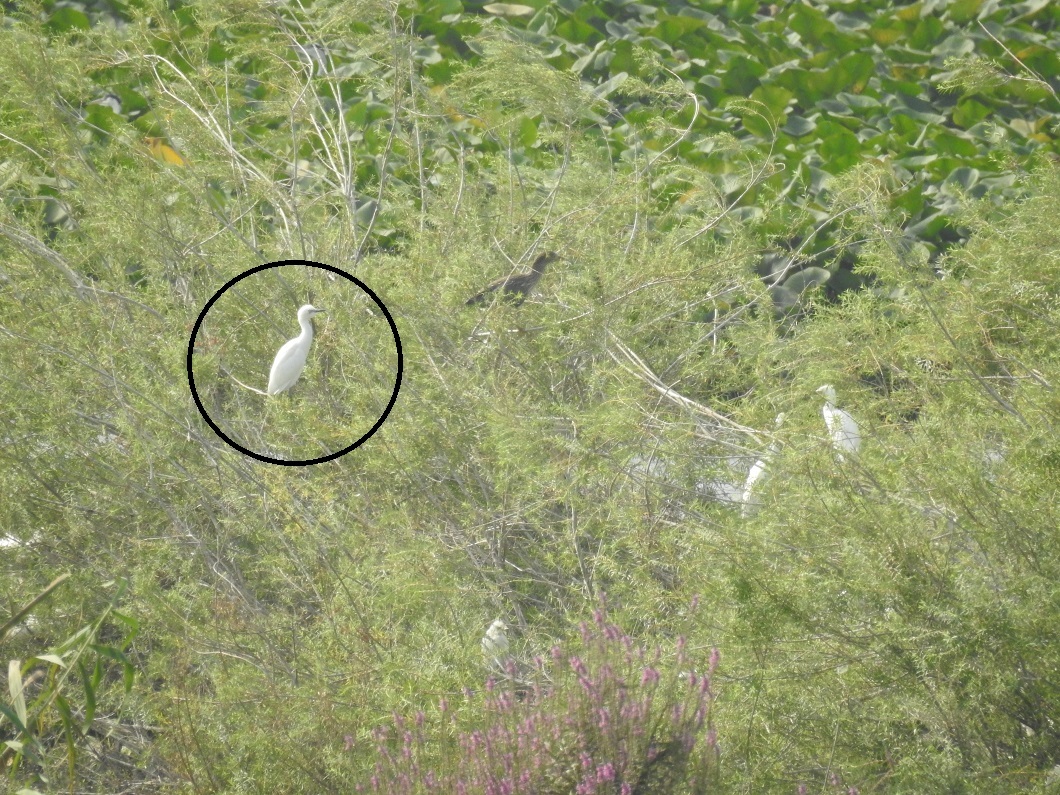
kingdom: Animalia
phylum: Chordata
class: Aves
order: Pelecaniformes
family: Ardeidae
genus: Egretta
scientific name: Egretta garzetta
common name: Little egret
